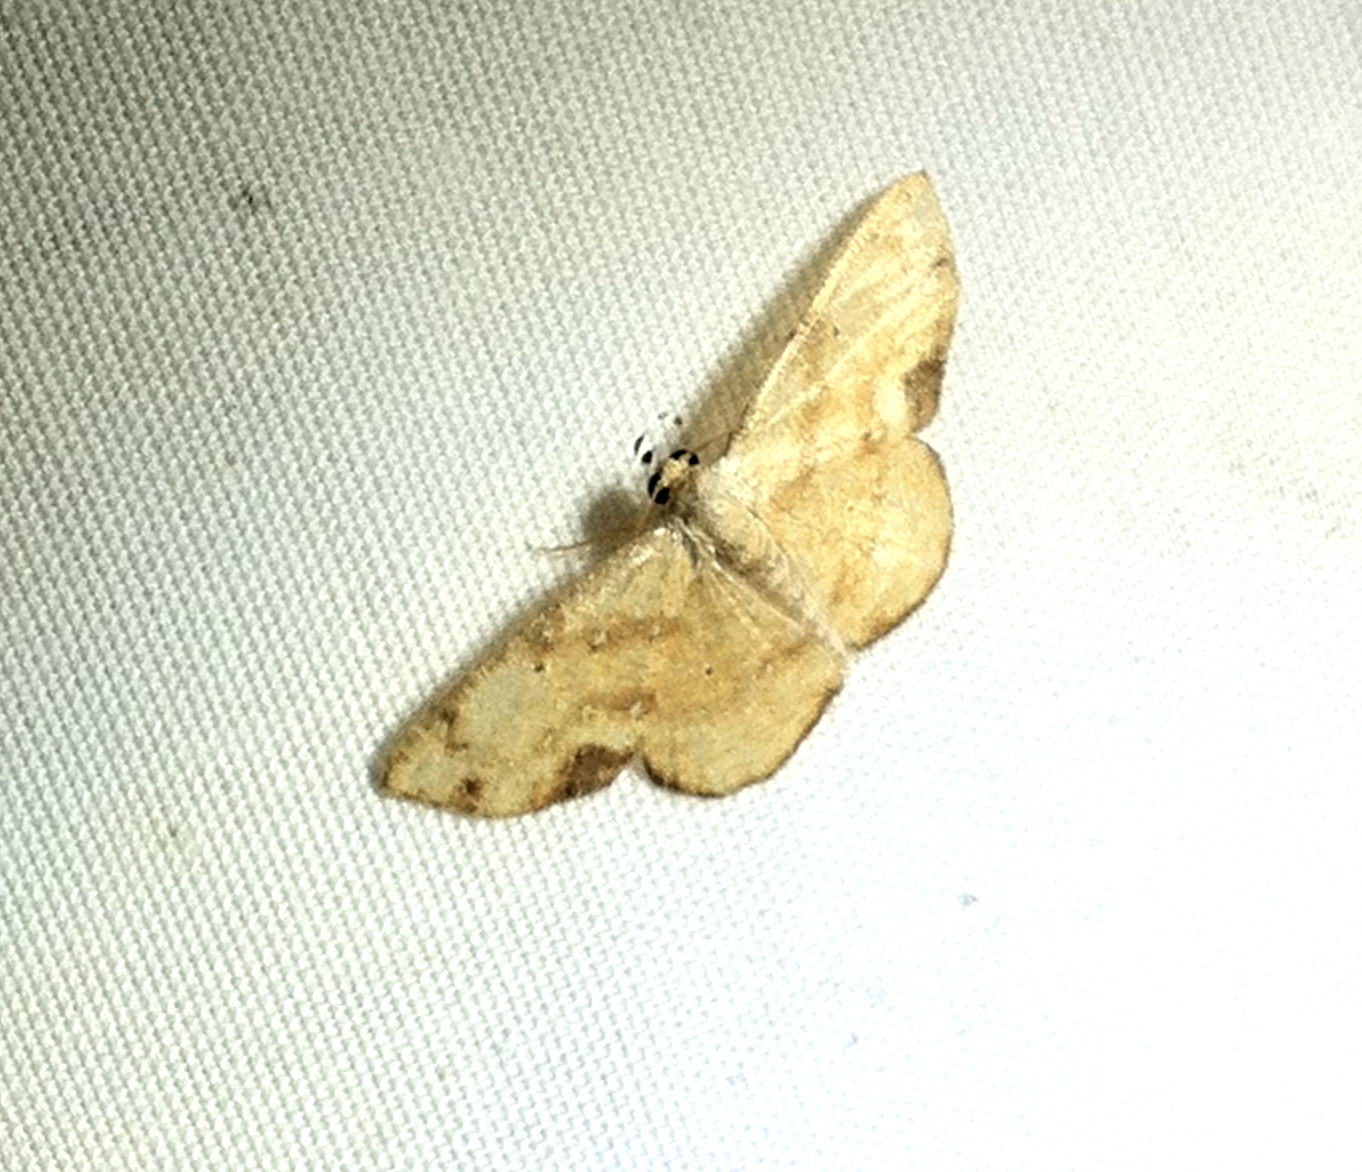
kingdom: Animalia
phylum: Arthropoda
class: Insecta
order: Lepidoptera
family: Geometridae
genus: Nematocampa
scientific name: Nematocampa confusa
